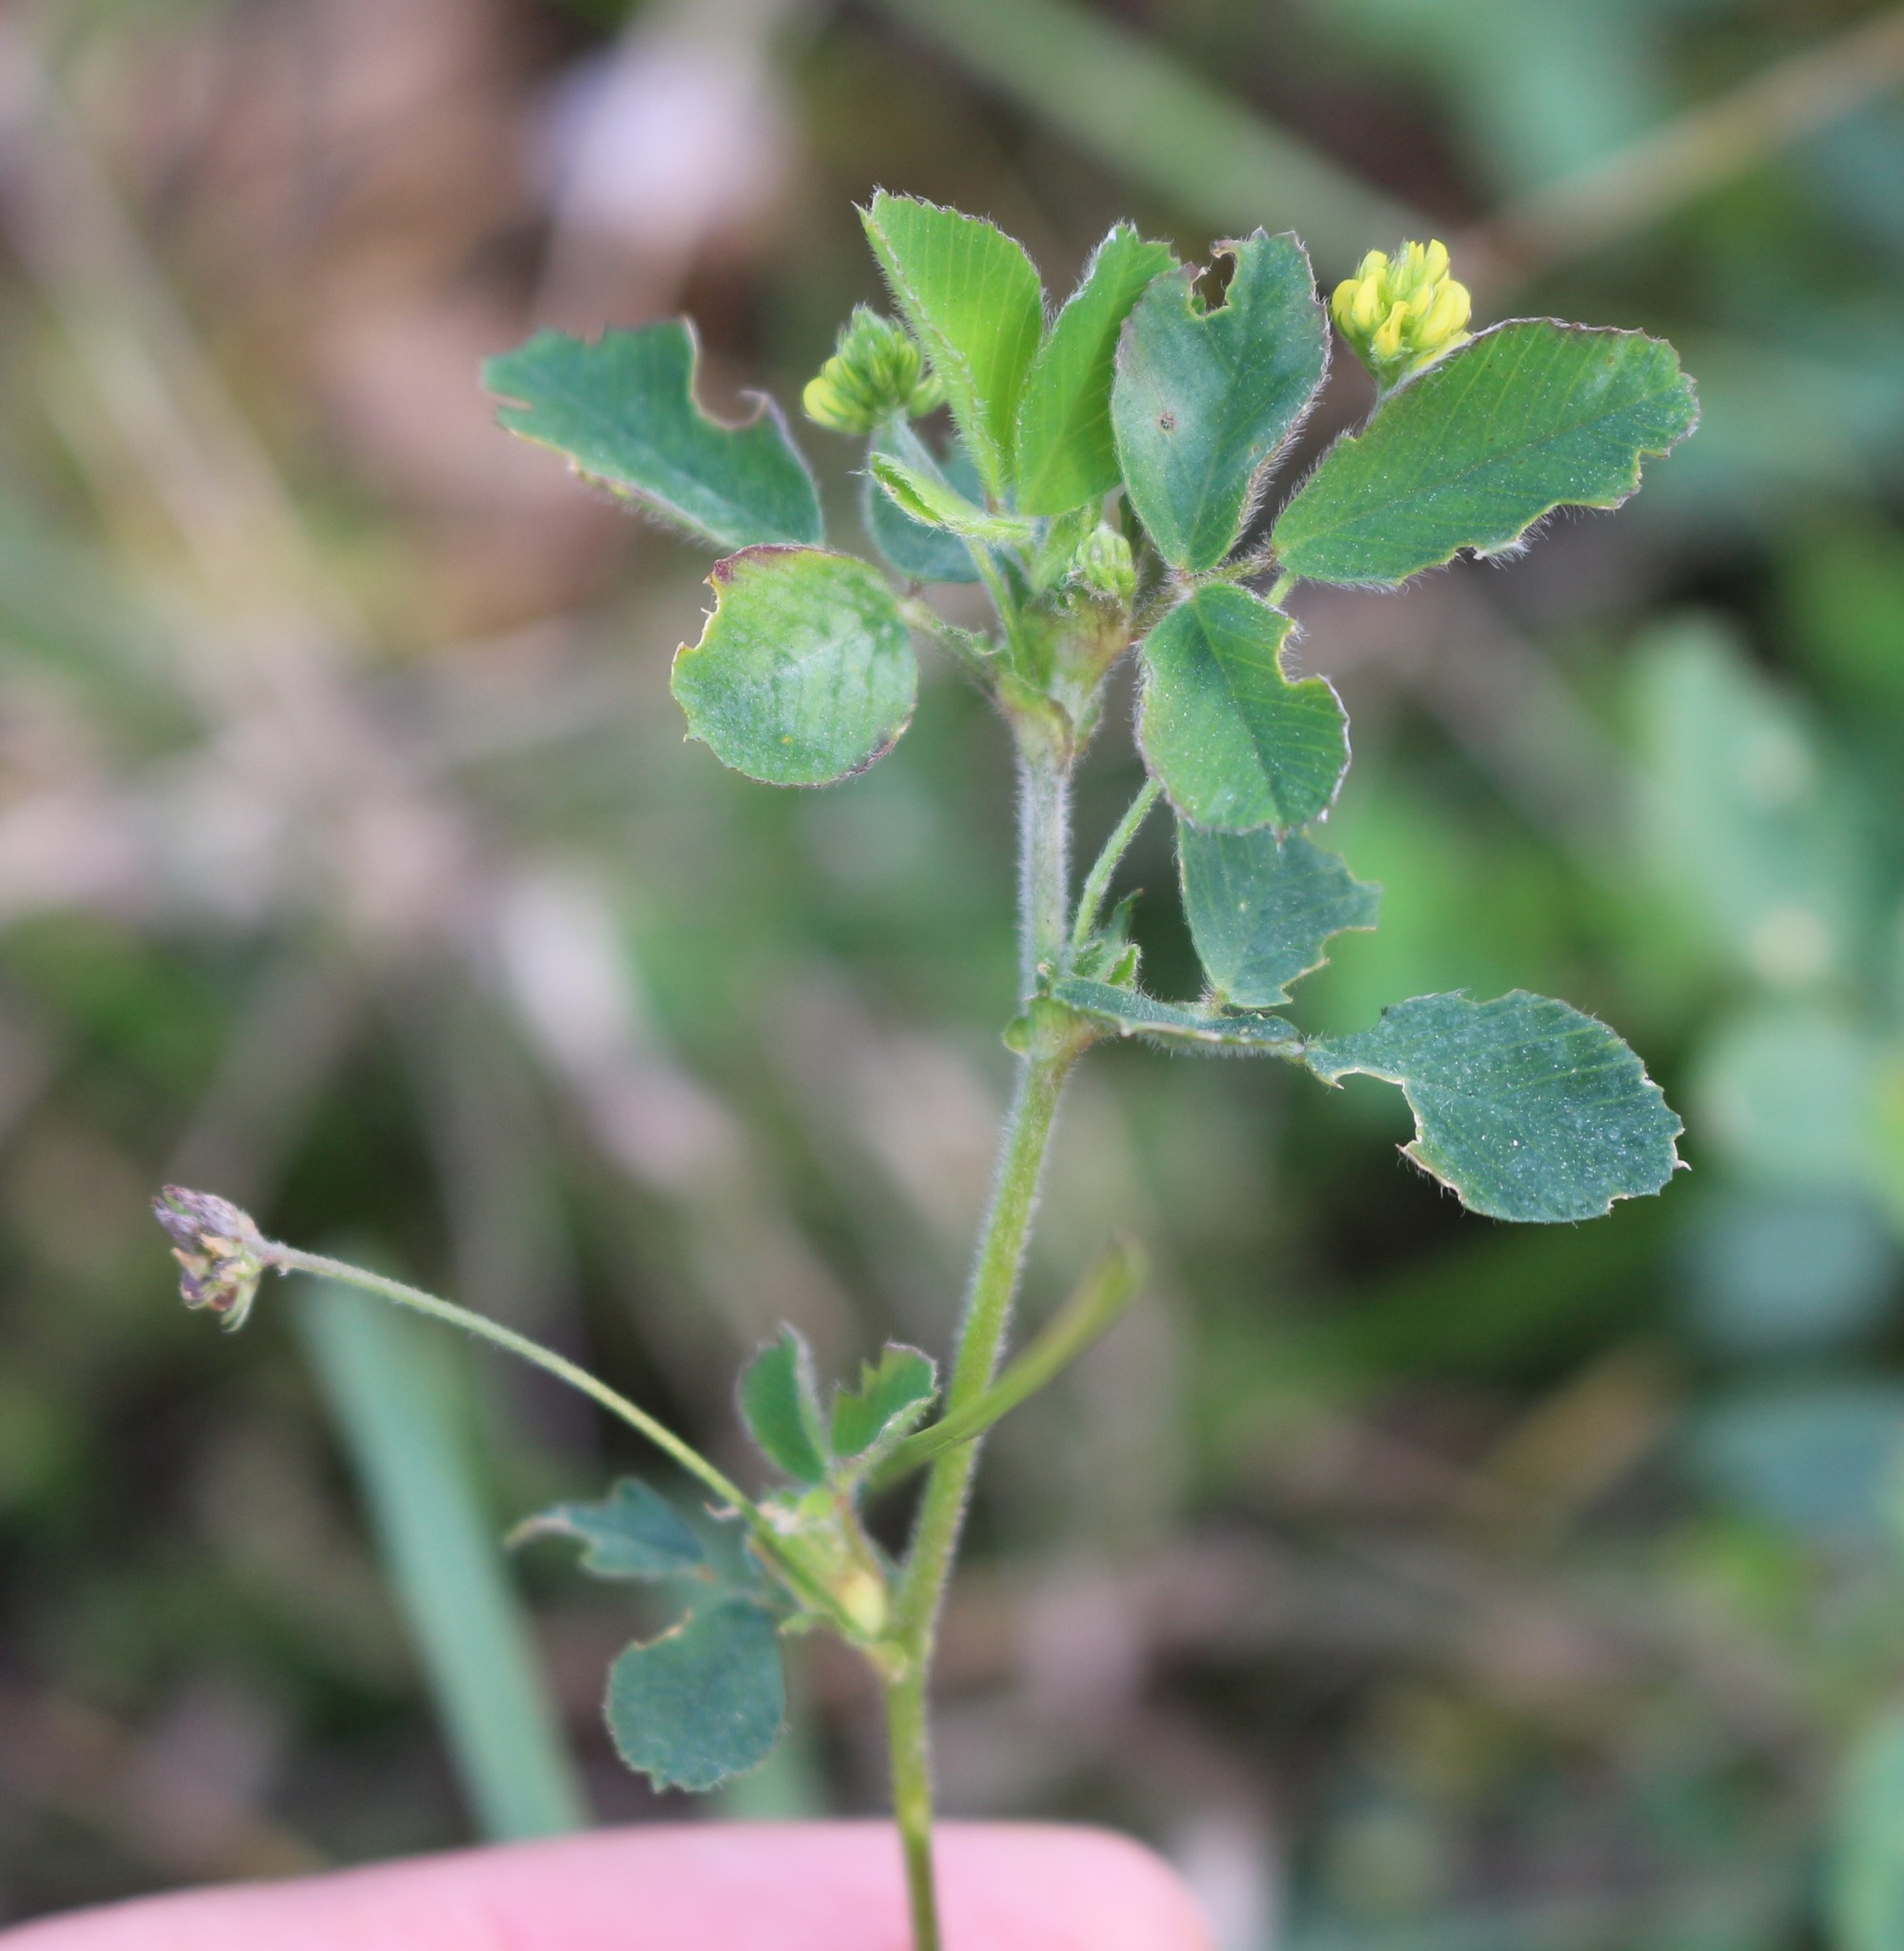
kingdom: Plantae
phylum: Tracheophyta
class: Magnoliopsida
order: Fabales
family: Fabaceae
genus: Medicago
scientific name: Medicago lupulina
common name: Black medick
